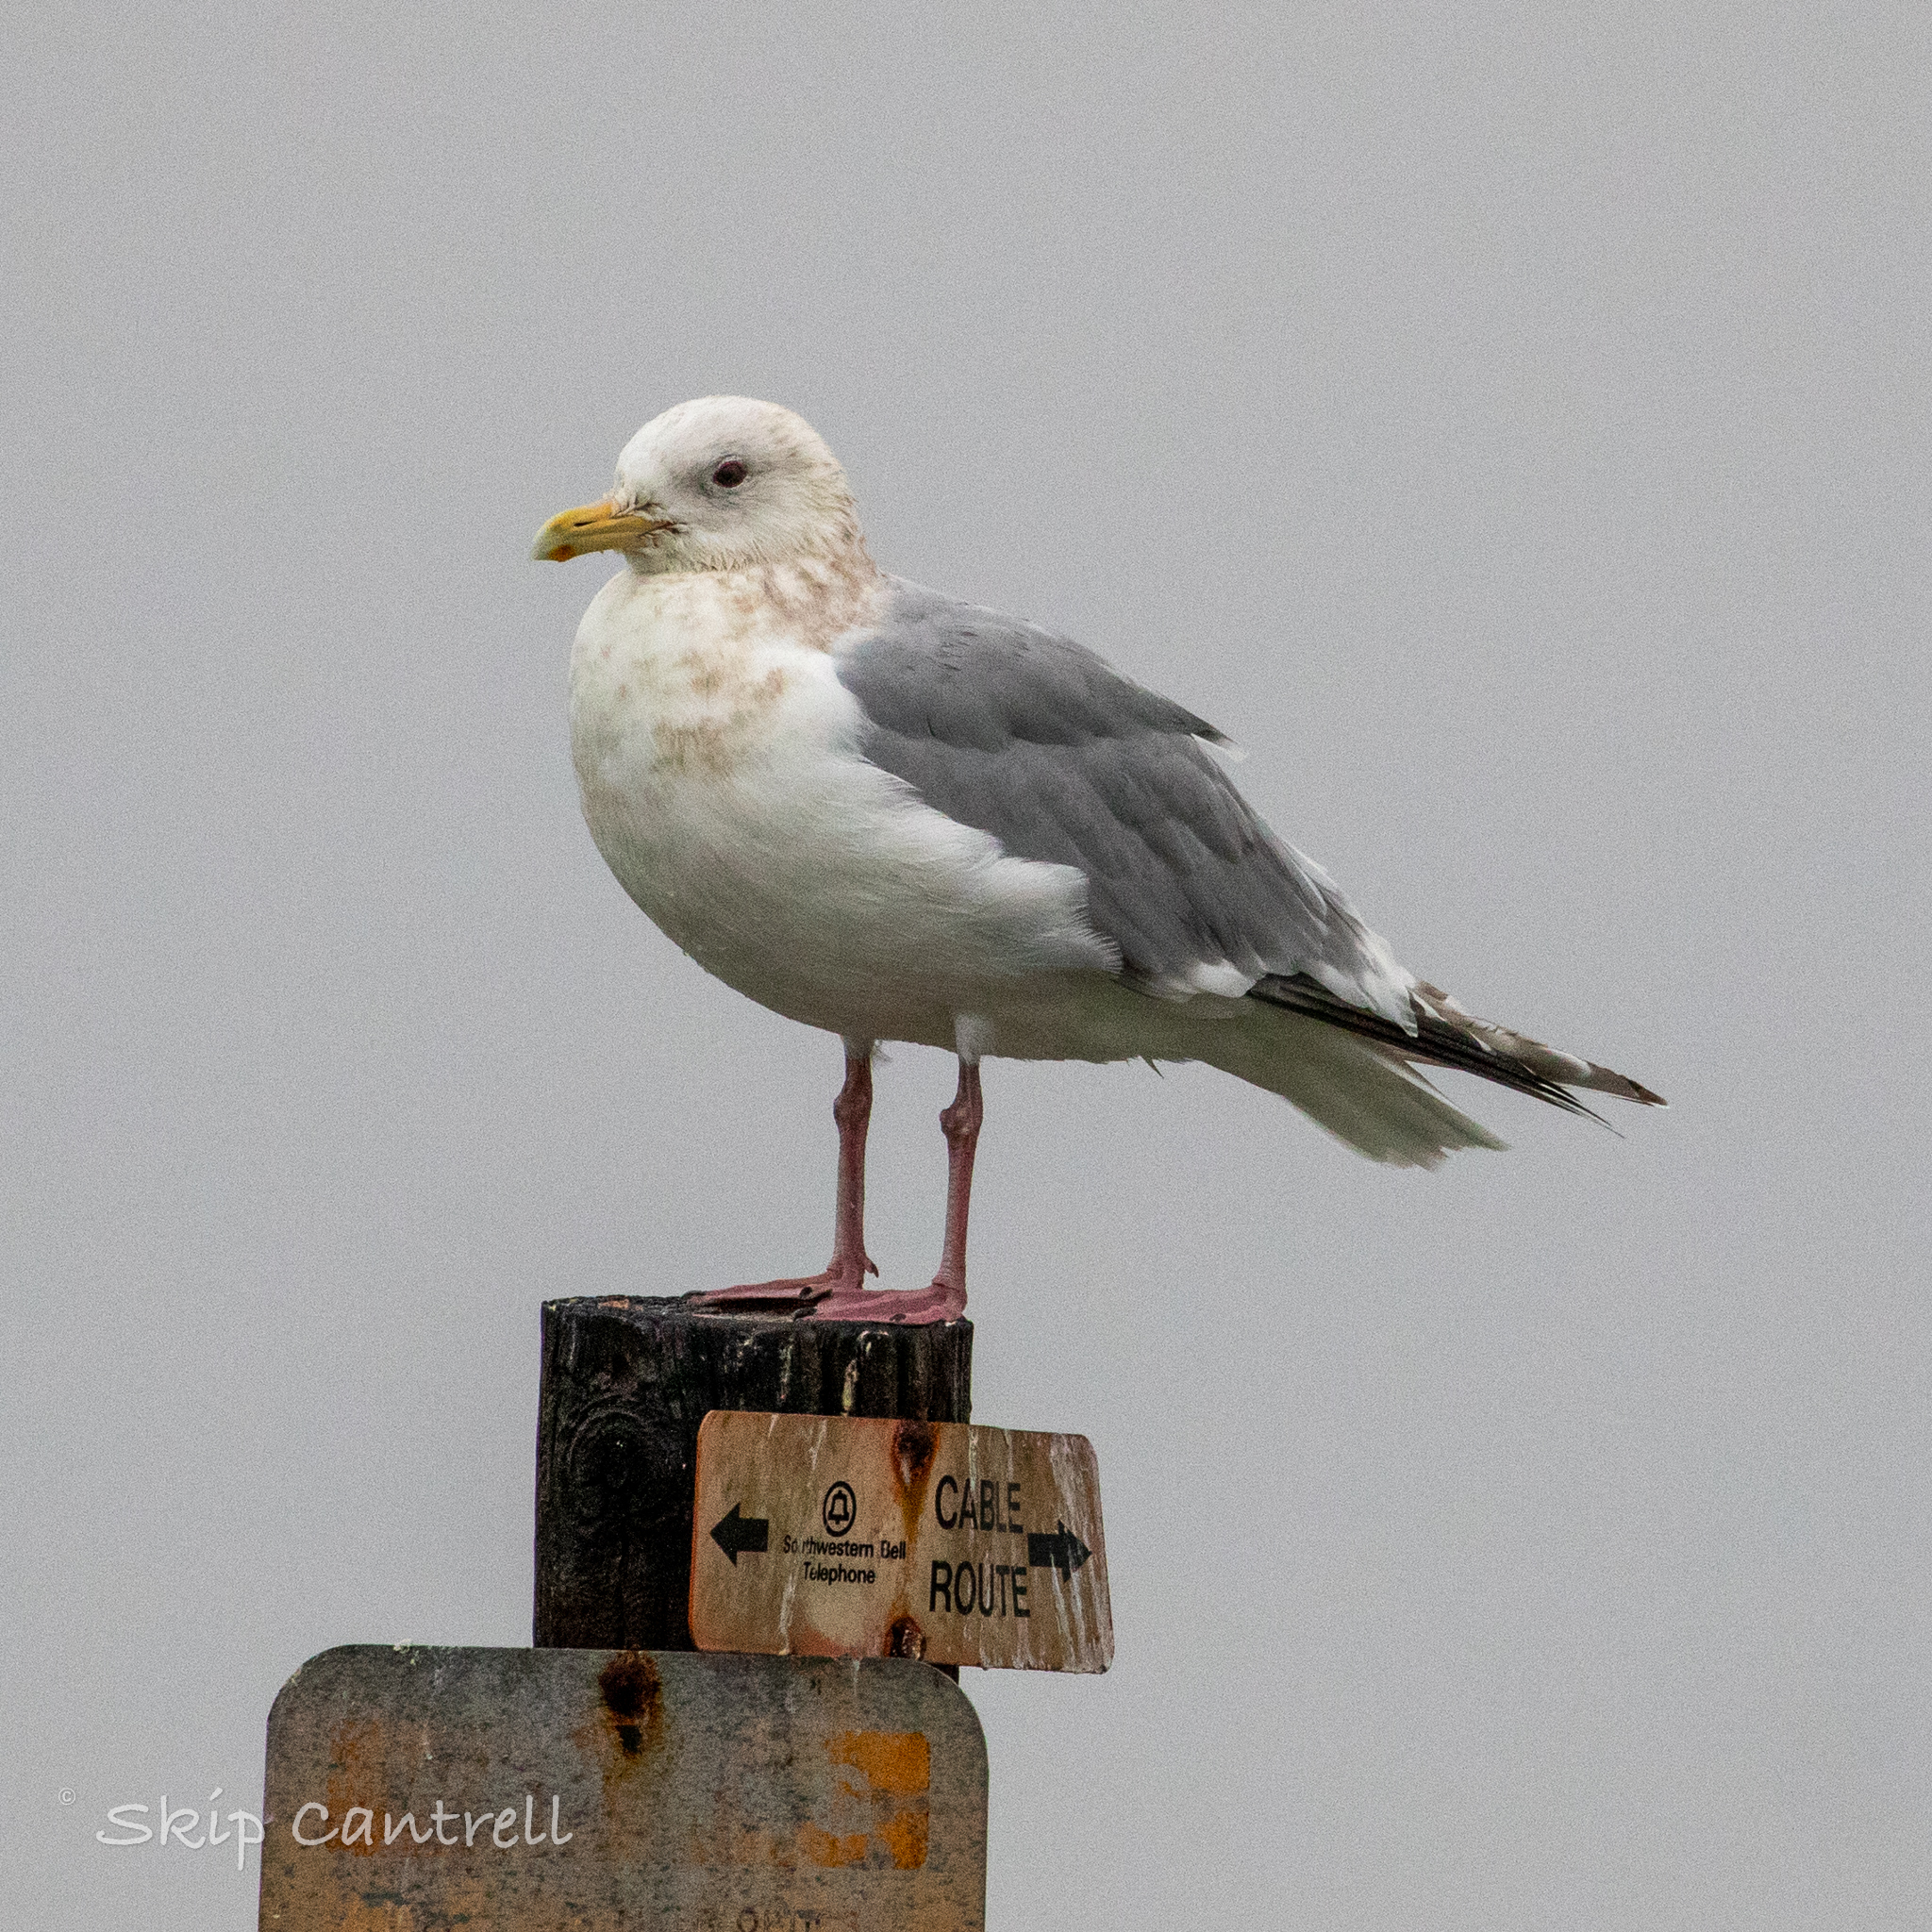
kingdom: Animalia
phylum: Chordata
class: Aves
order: Charadriiformes
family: Laridae
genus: Larus
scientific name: Larus glaucoides
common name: Iceland gull
